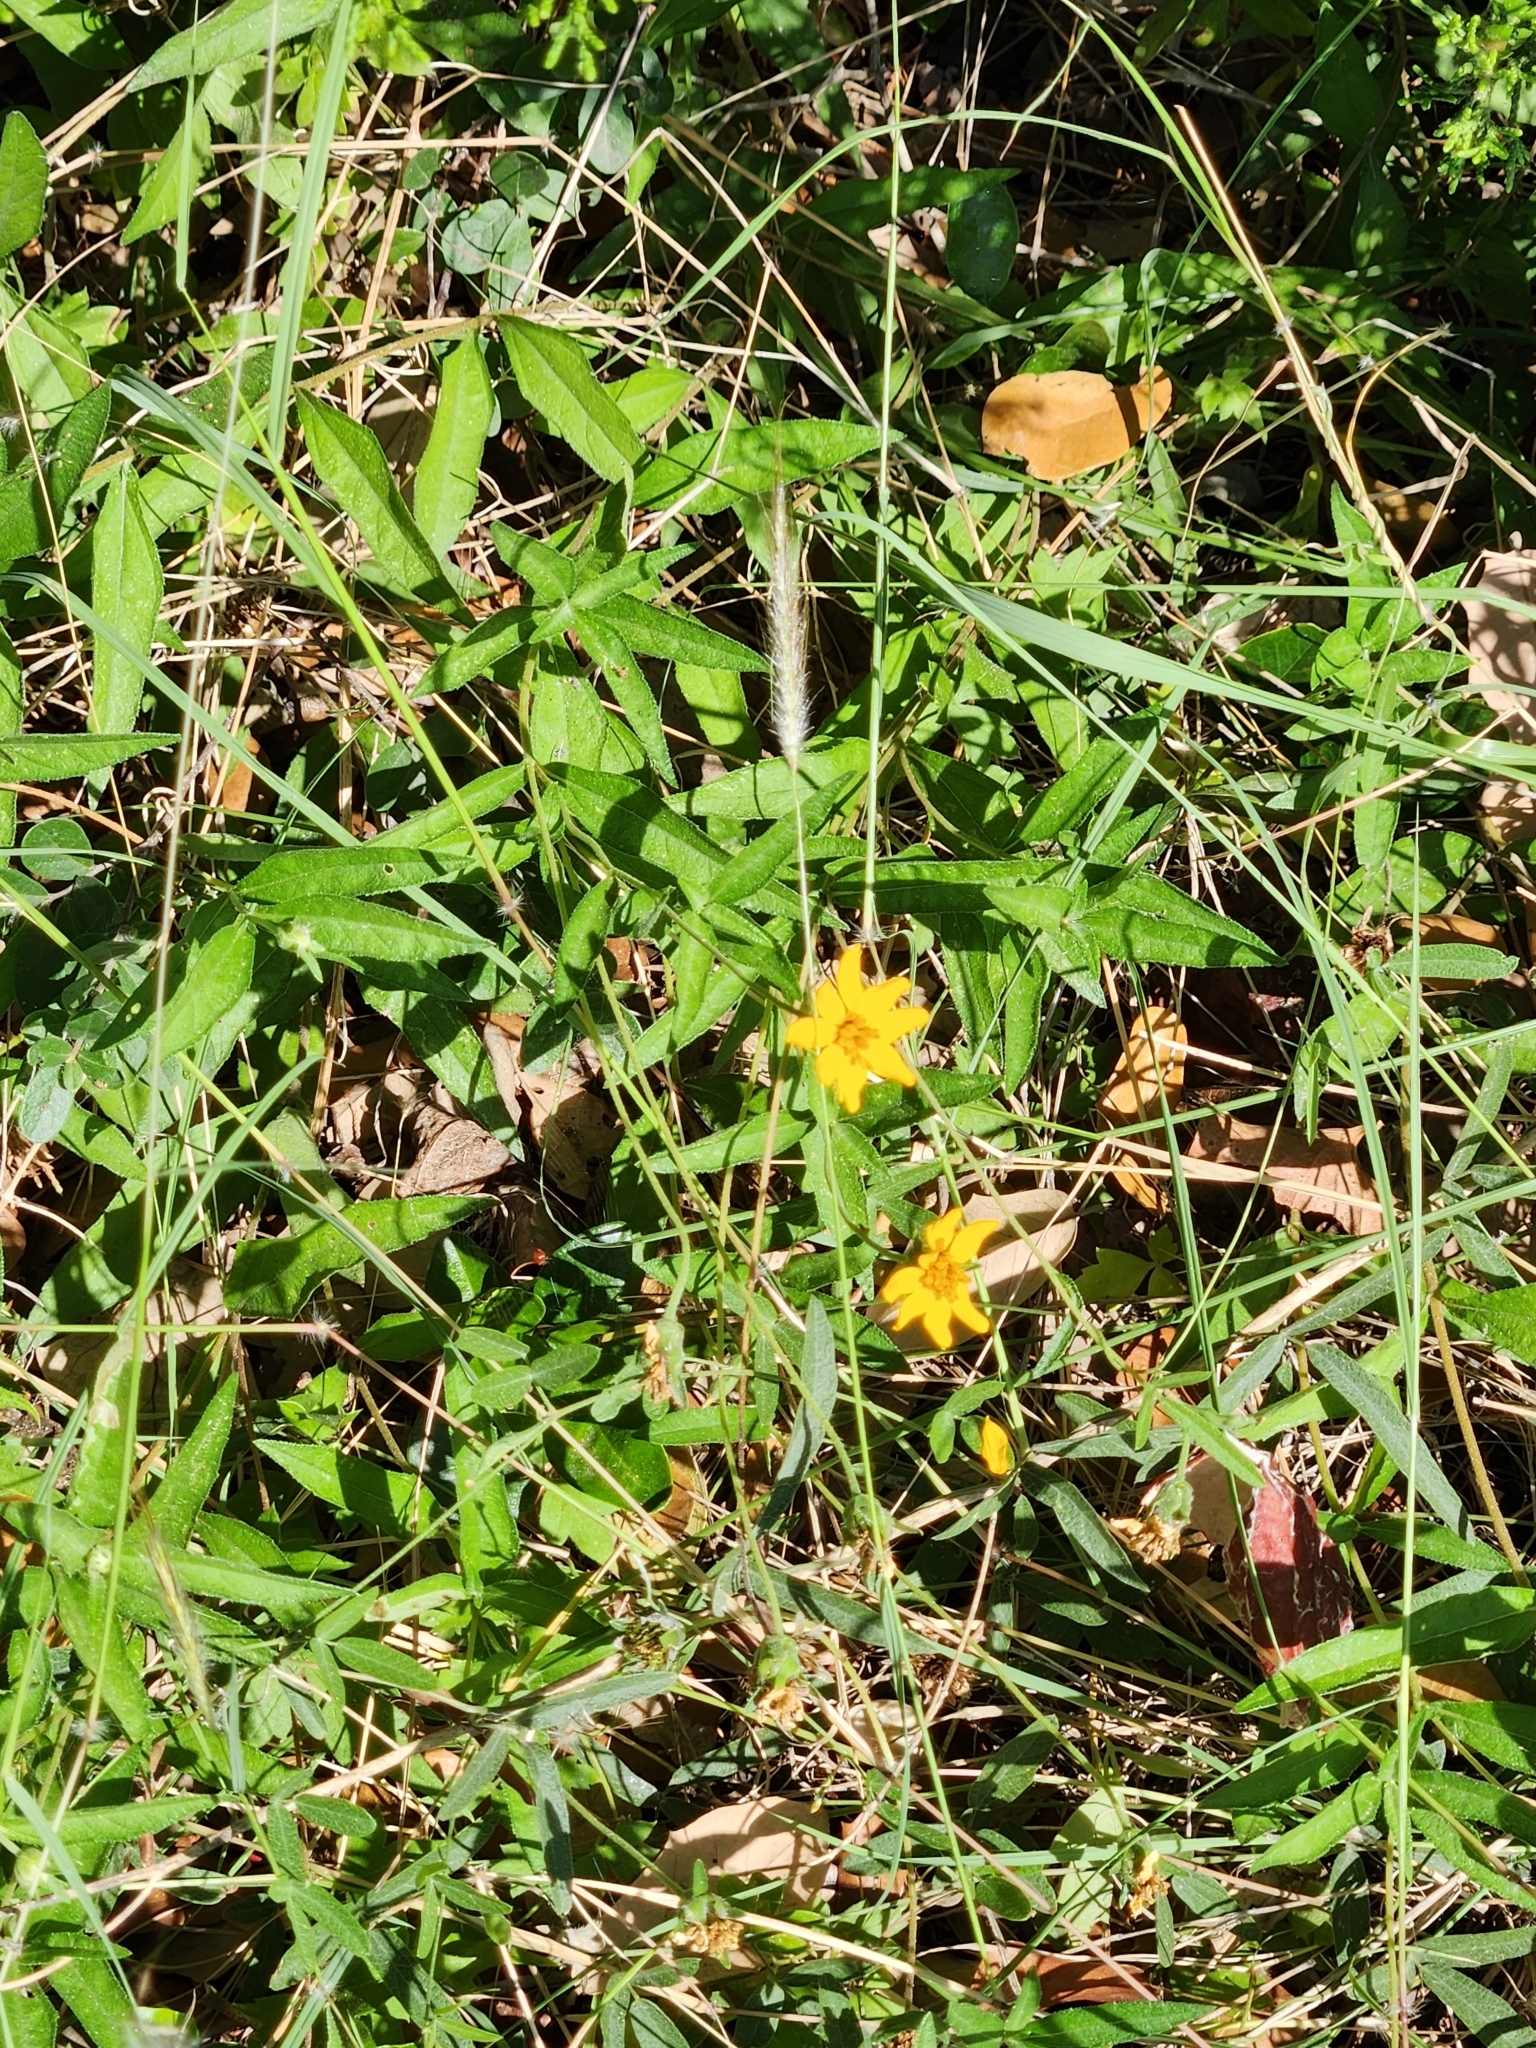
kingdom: Plantae
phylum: Tracheophyta
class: Magnoliopsida
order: Asterales
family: Asteraceae
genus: Wedelia
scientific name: Wedelia acapulcensis
